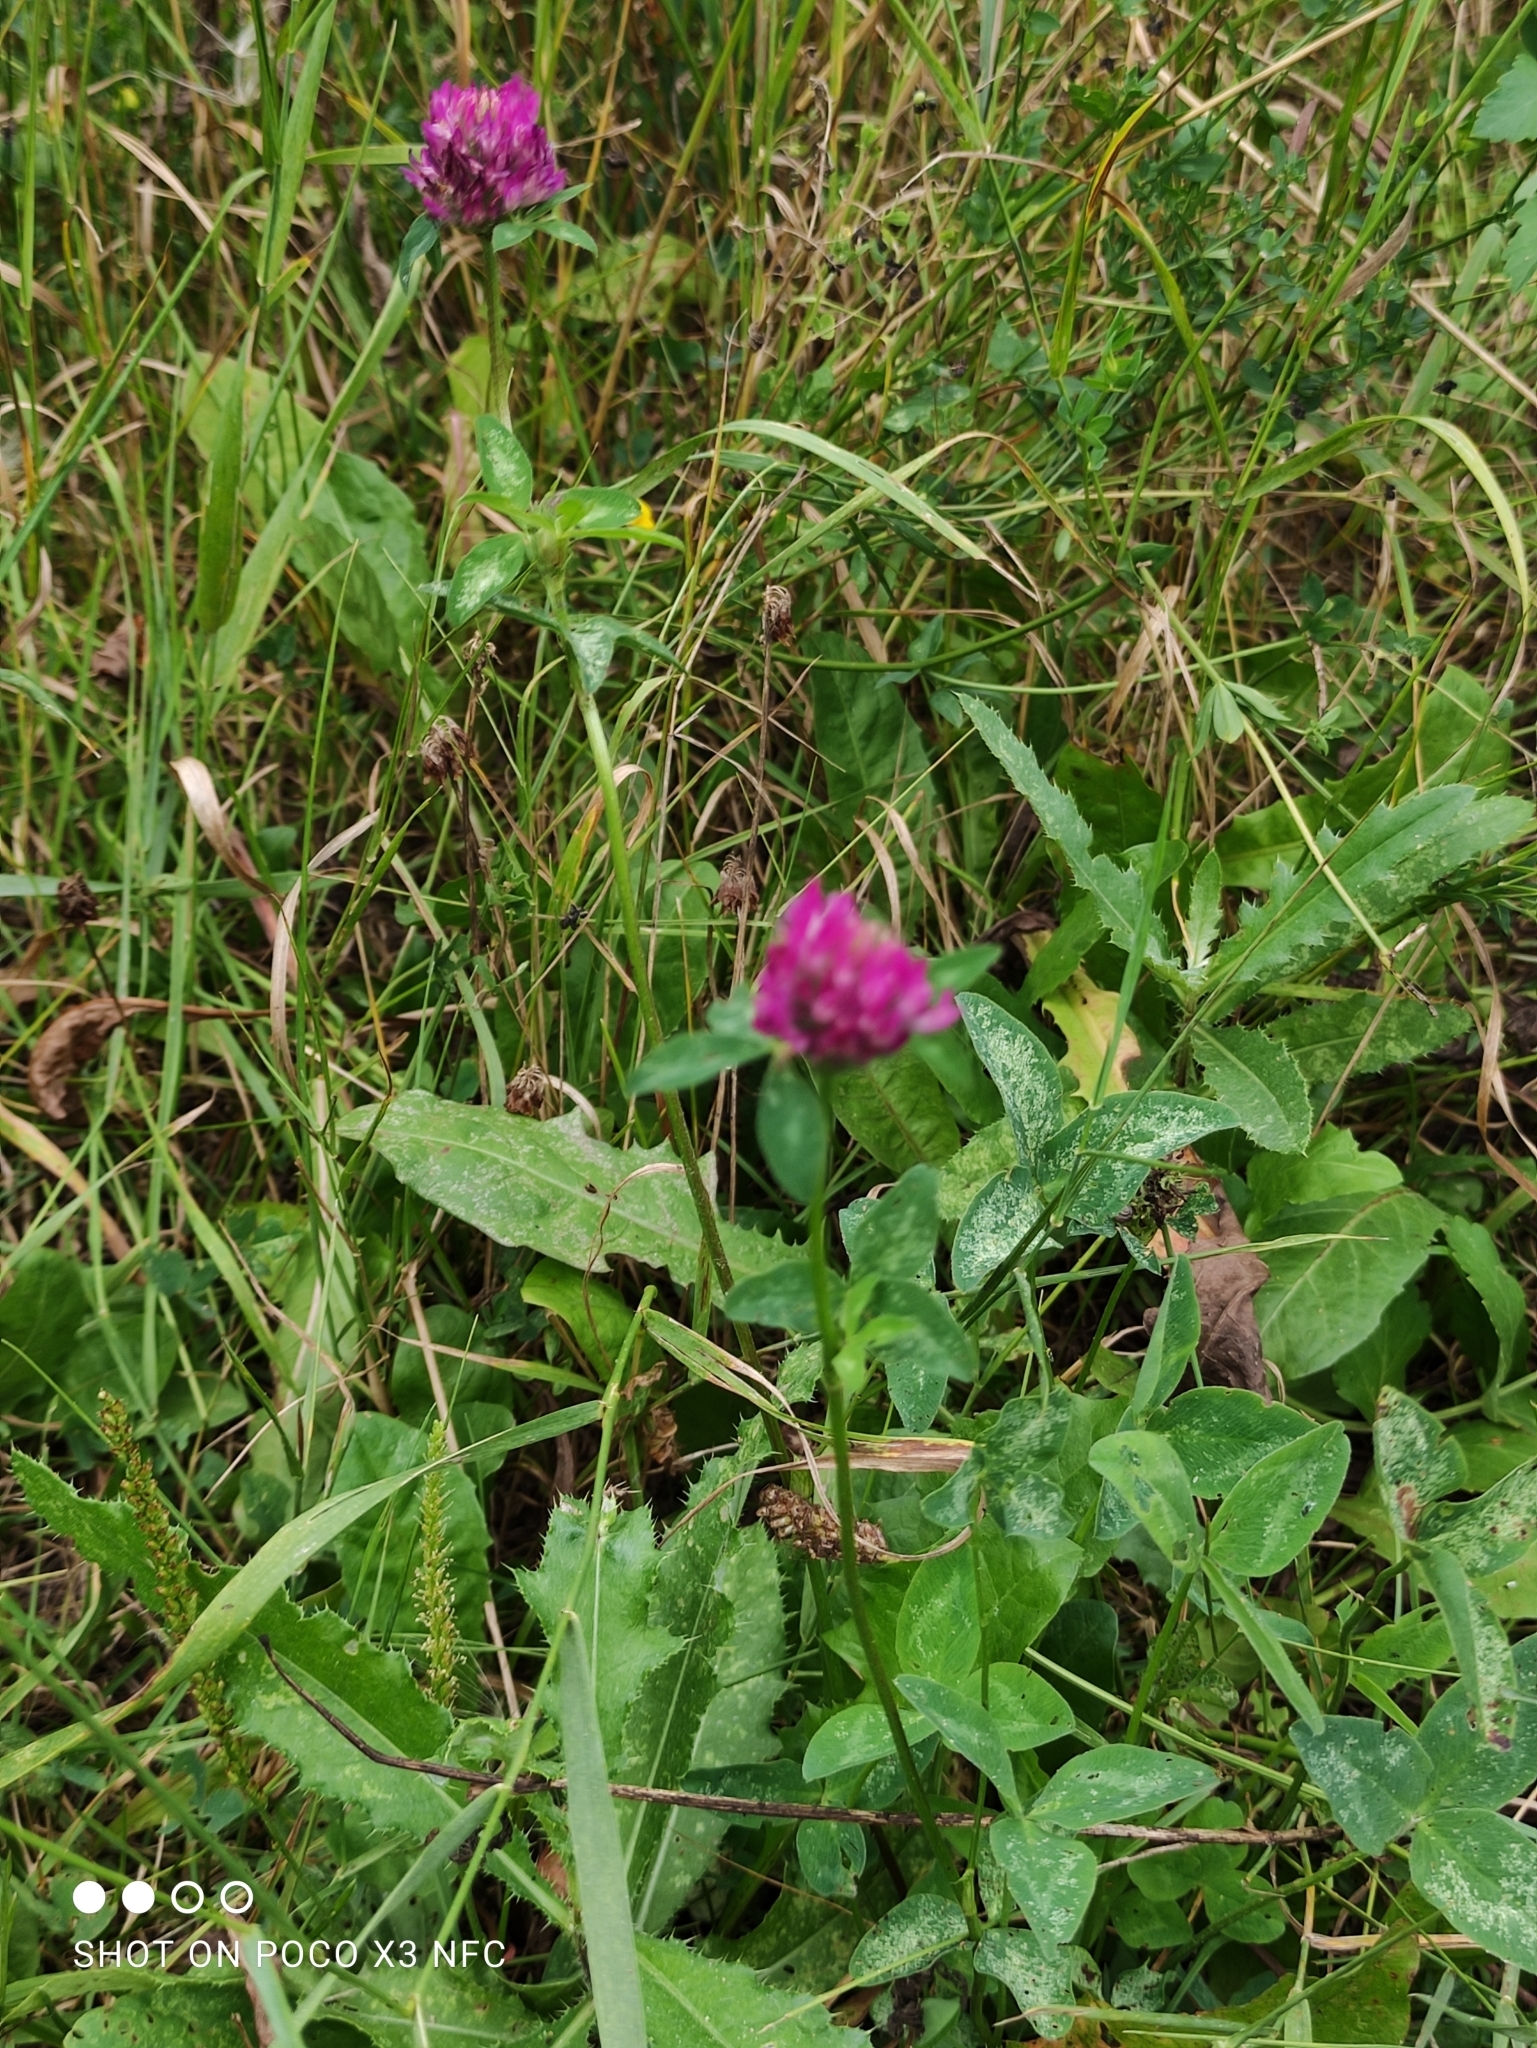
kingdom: Plantae
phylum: Tracheophyta
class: Magnoliopsida
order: Fabales
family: Fabaceae
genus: Trifolium
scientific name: Trifolium pratense
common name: Red clover
